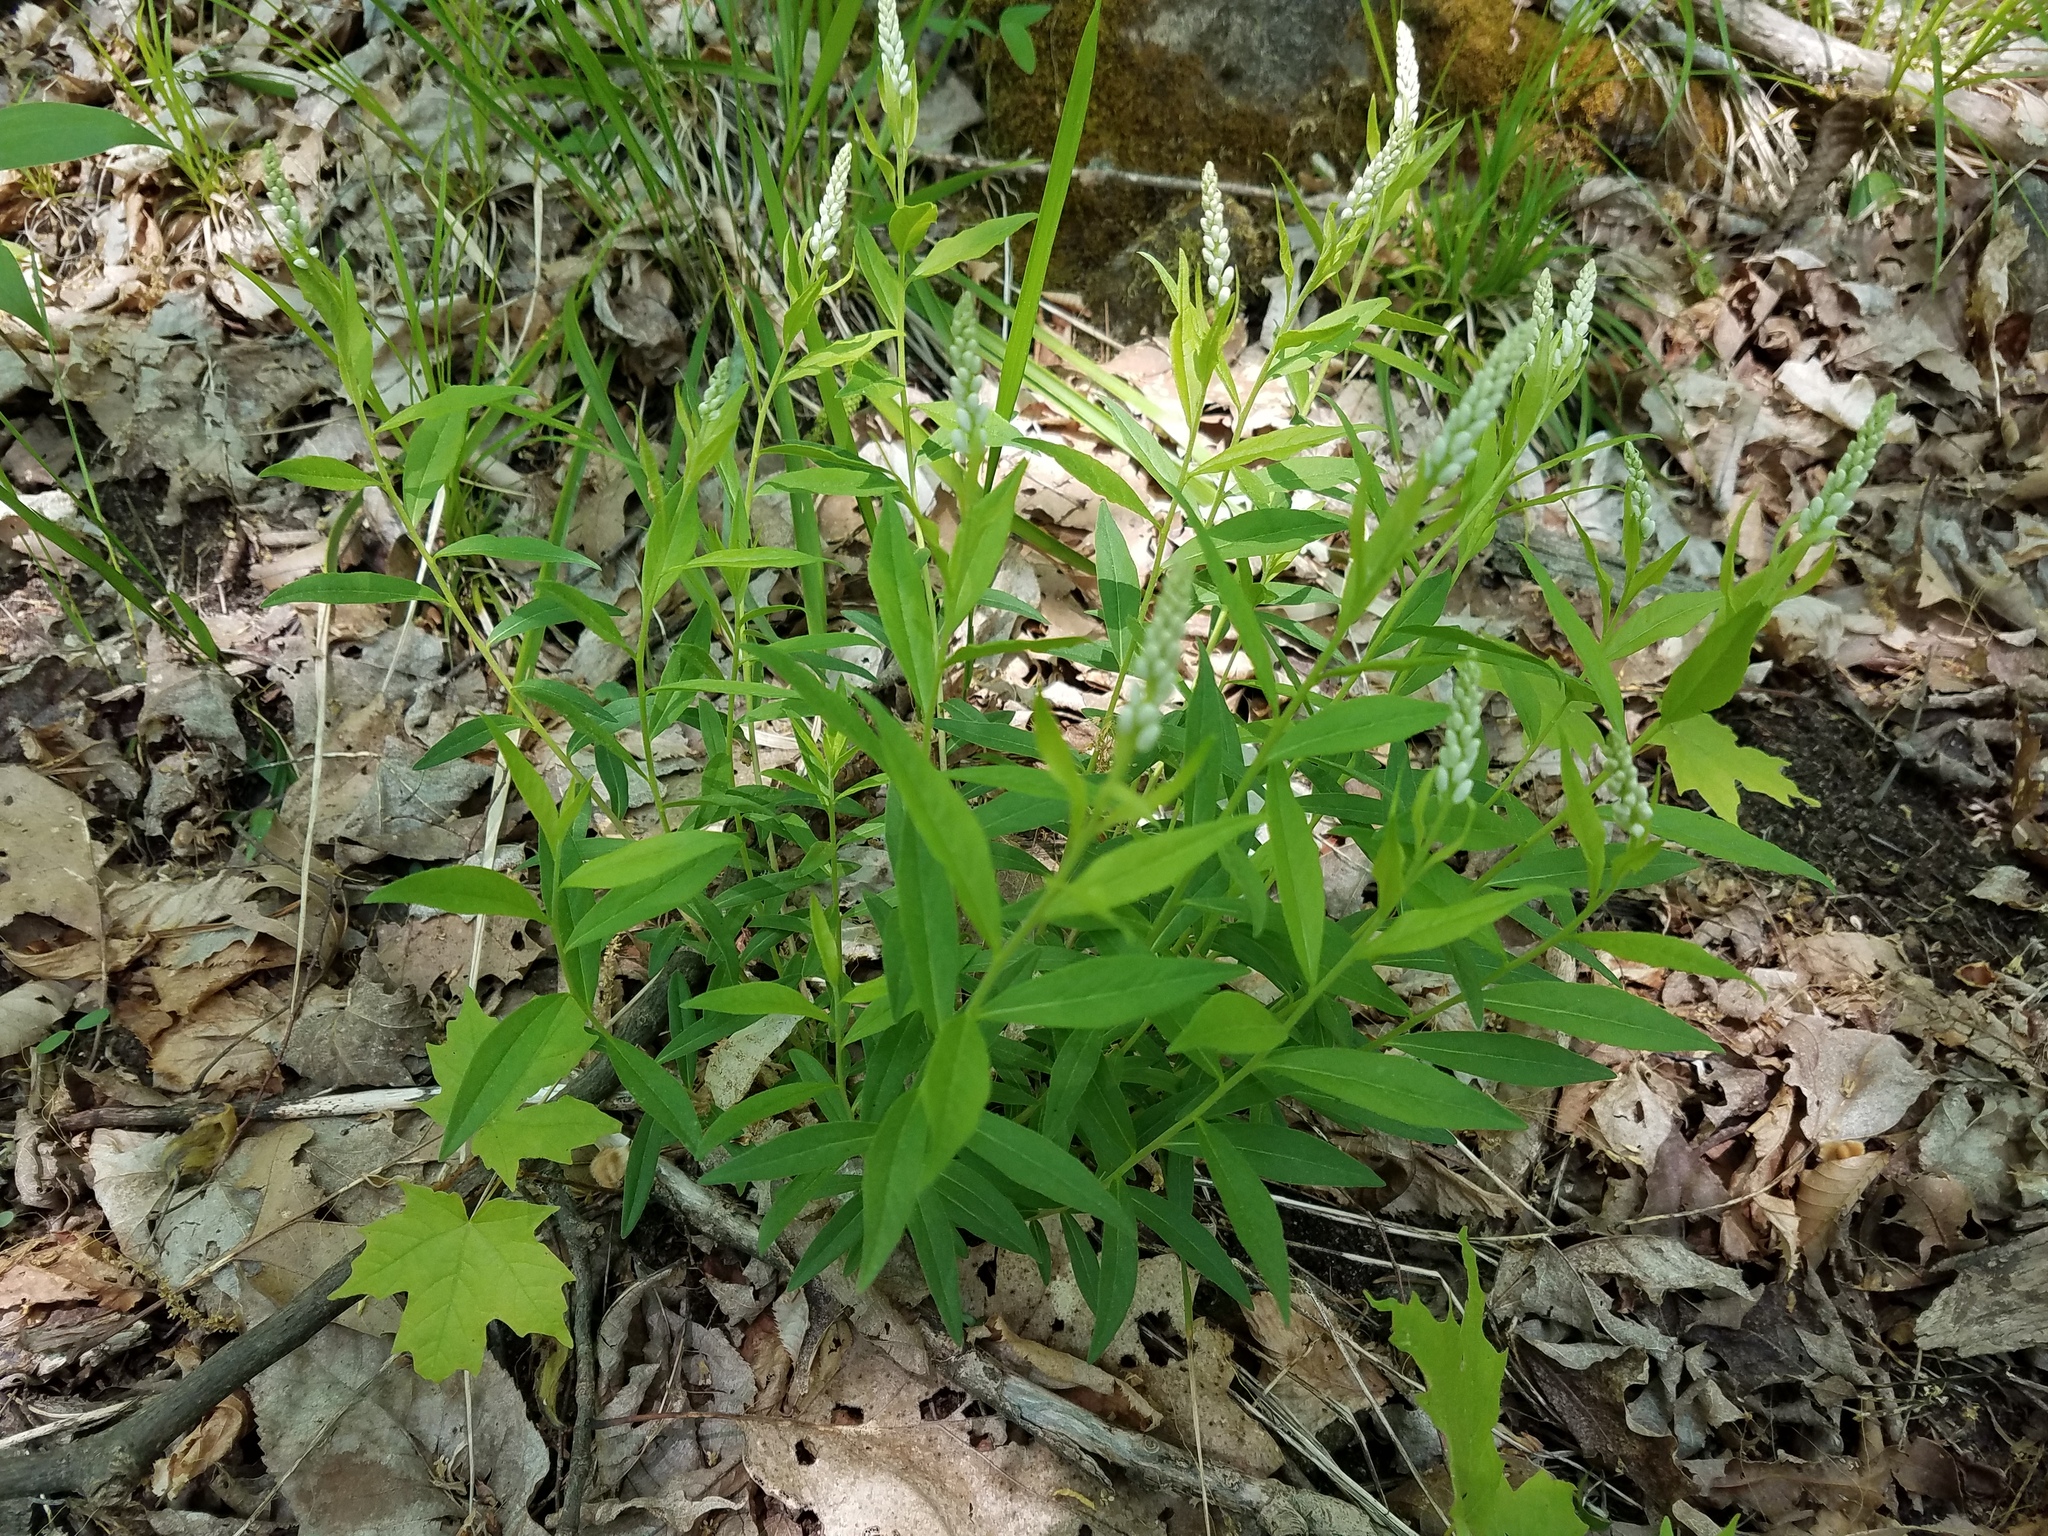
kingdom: Plantae
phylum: Tracheophyta
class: Magnoliopsida
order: Fabales
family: Polygalaceae
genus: Polygala
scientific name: Polygala senega
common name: Seneca snakeroot
